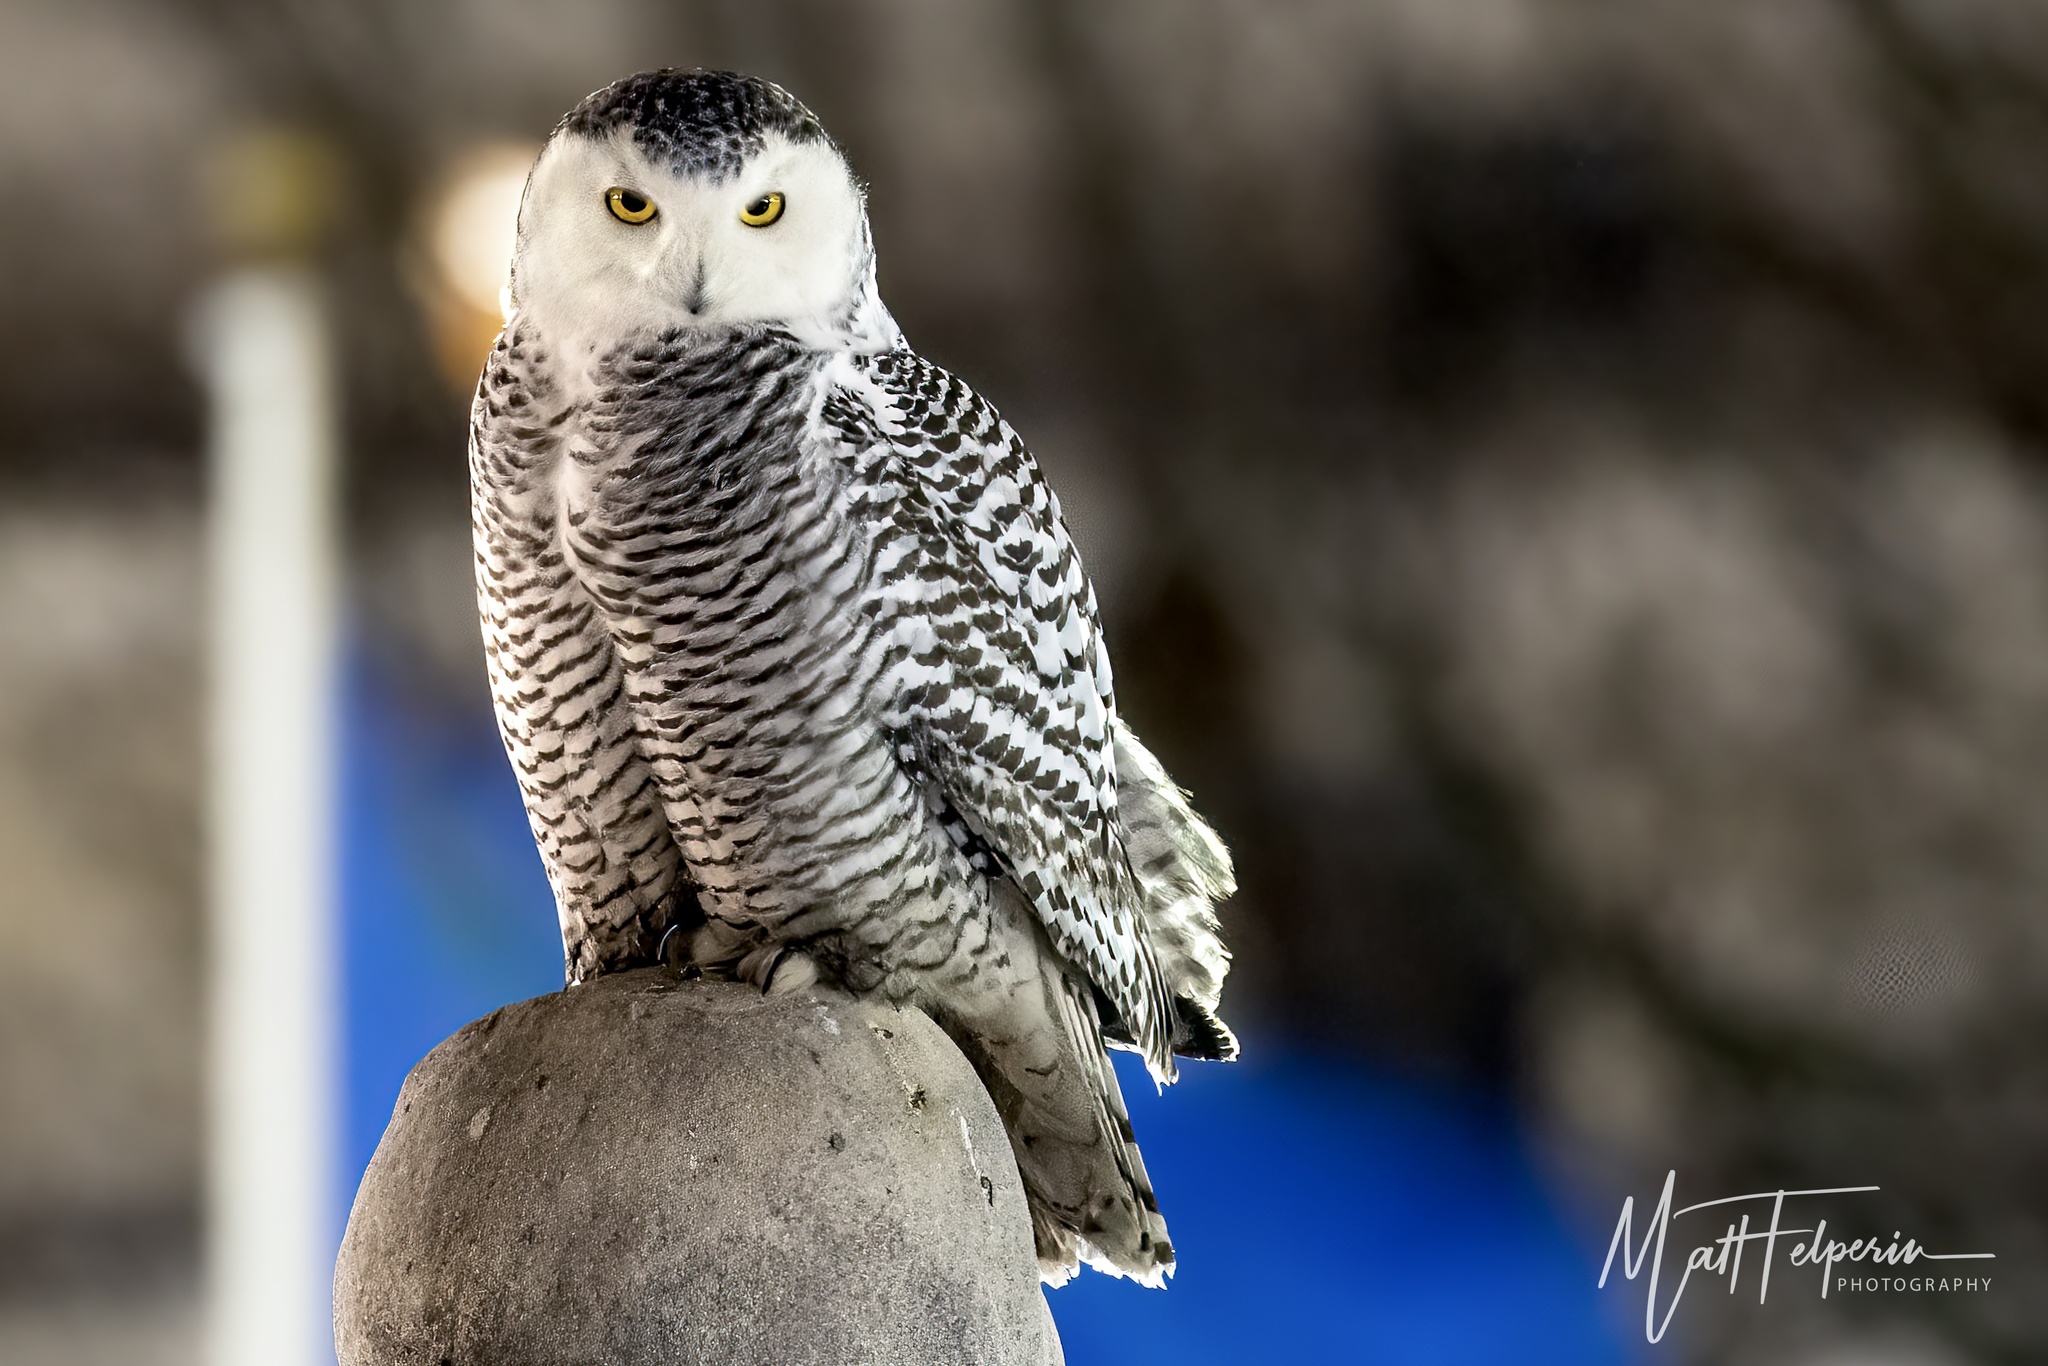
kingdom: Animalia
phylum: Chordata
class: Aves
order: Strigiformes
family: Strigidae
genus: Bubo
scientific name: Bubo scandiacus
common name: Snowy owl
